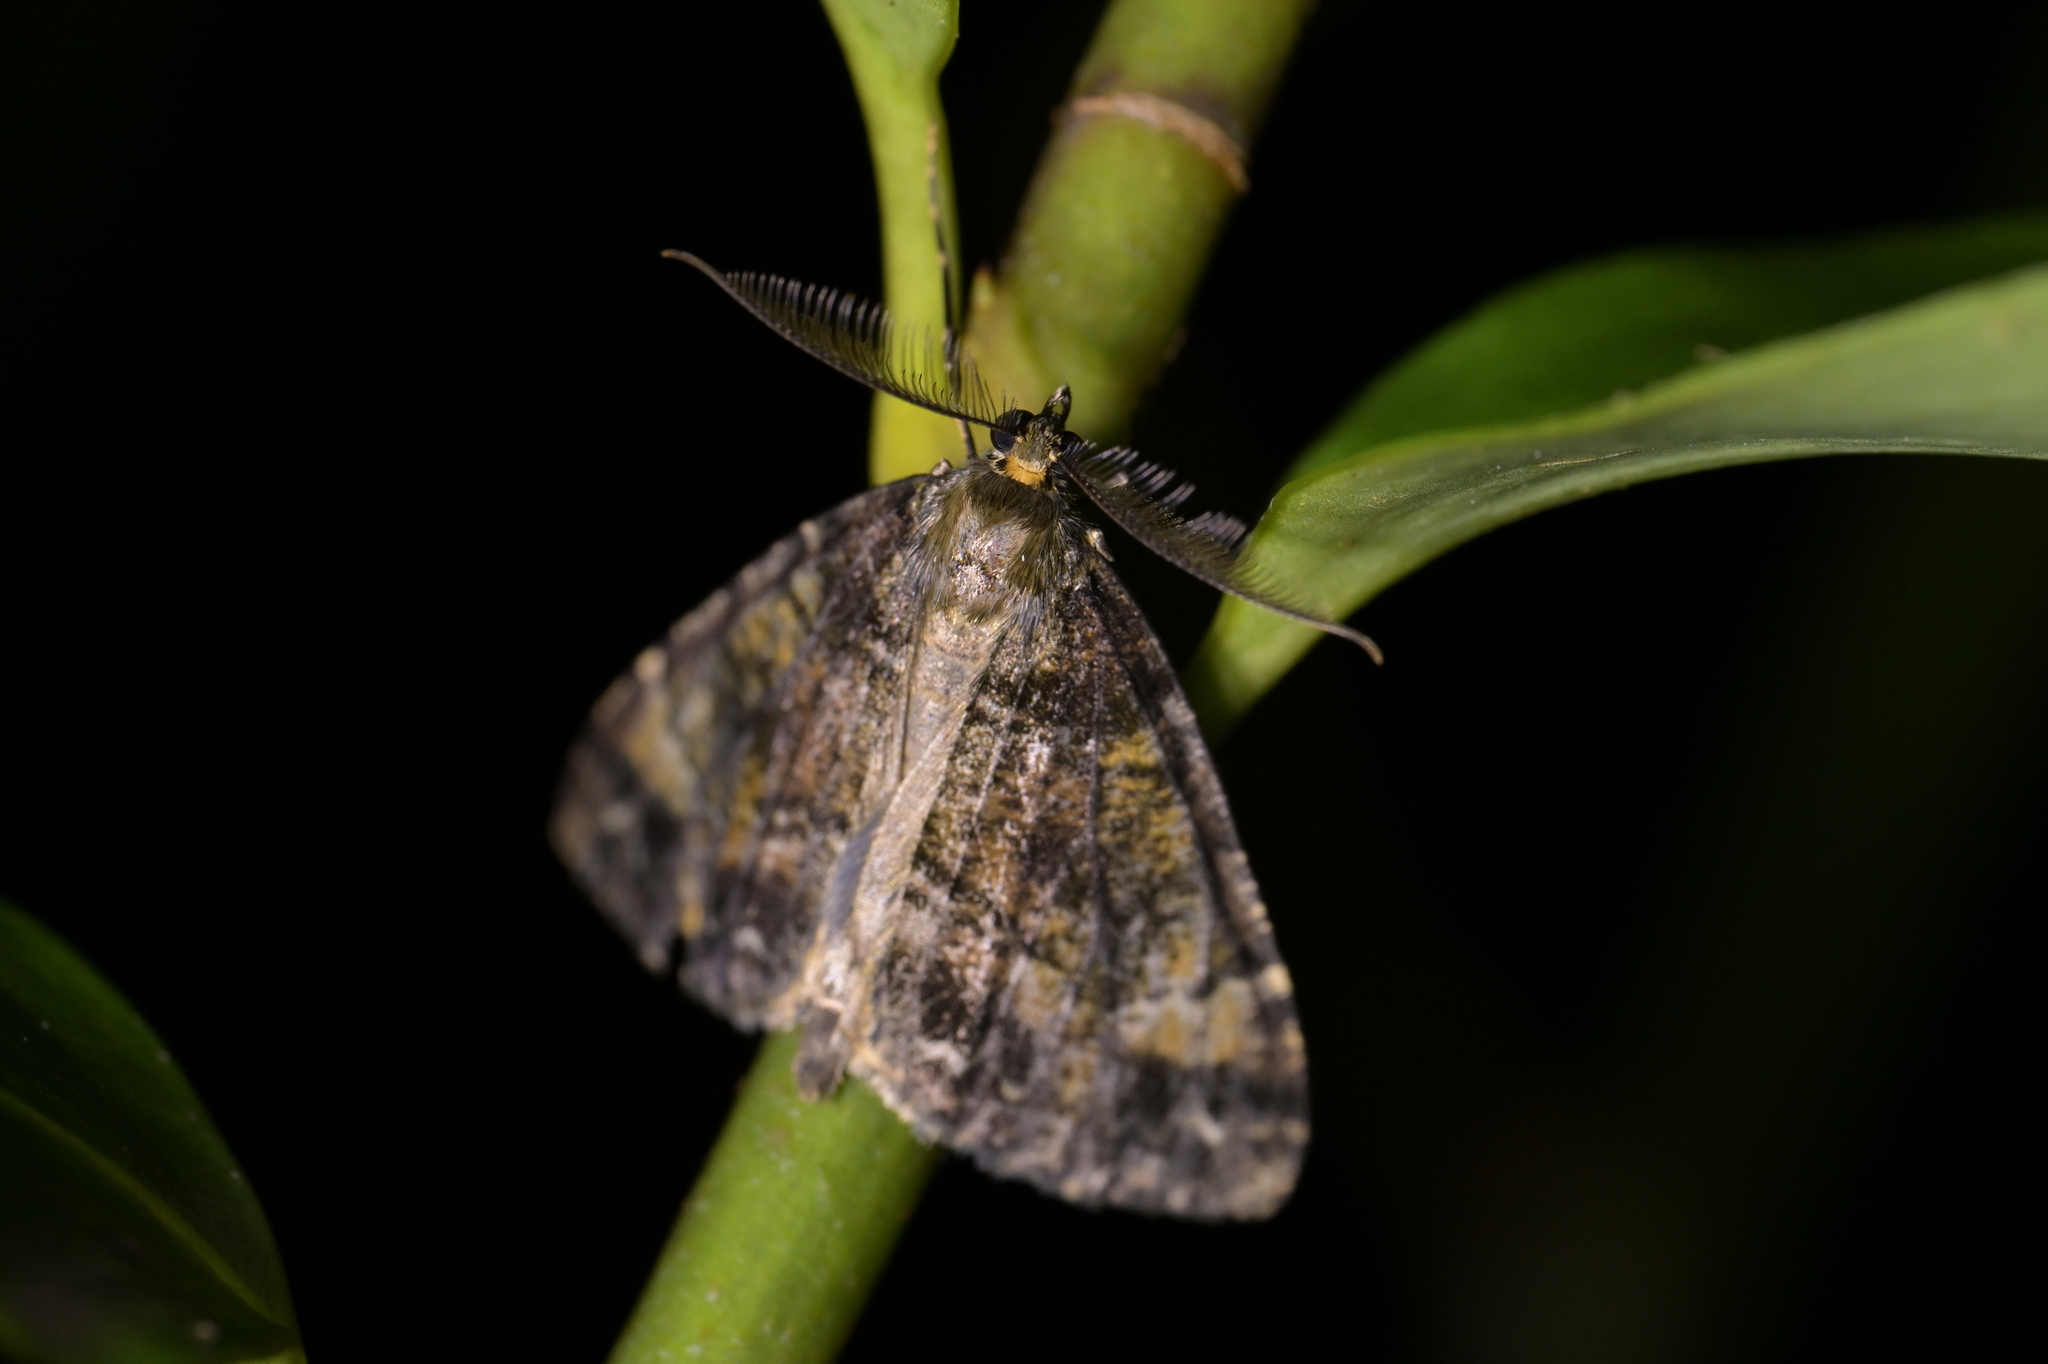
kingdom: Animalia
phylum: Arthropoda
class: Insecta
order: Lepidoptera
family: Geometridae
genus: Pseudocoremia
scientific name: Pseudocoremia productata
